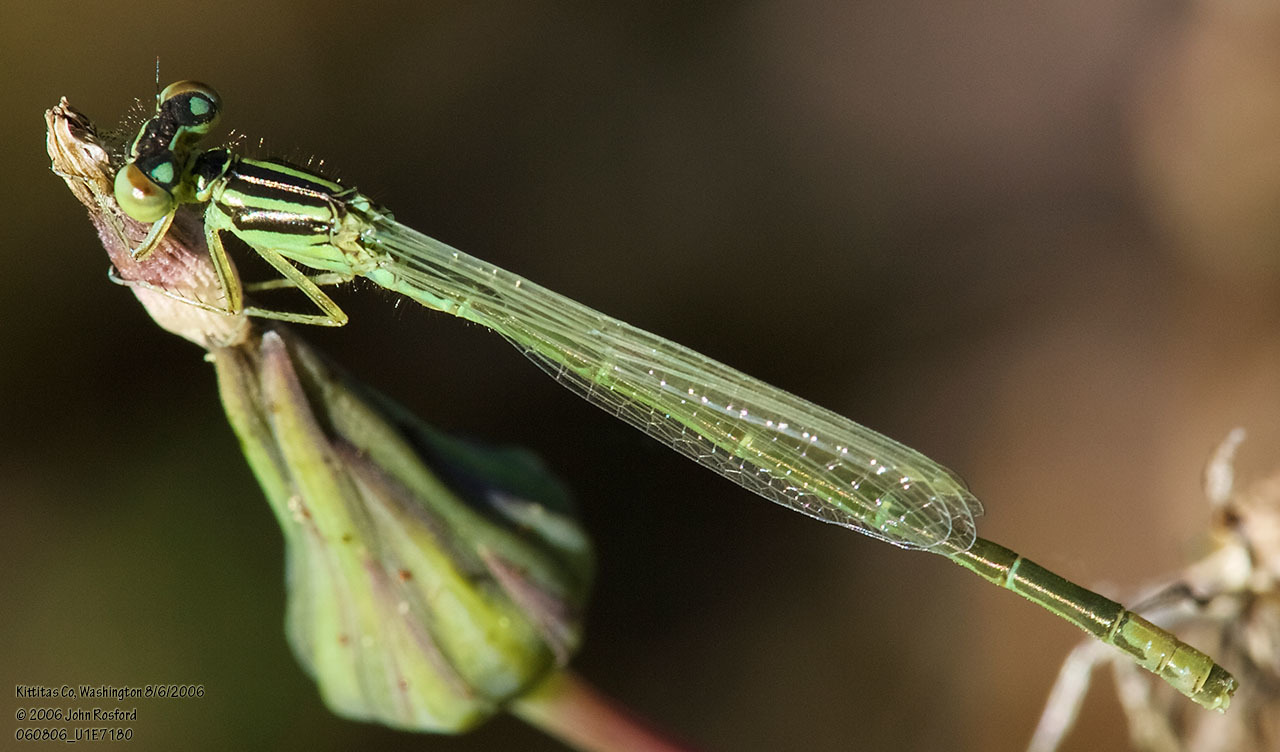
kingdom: Animalia
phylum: Arthropoda
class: Insecta
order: Odonata
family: Coenagrionidae
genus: Ischnura
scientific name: Ischnura perparva
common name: Western forktail
